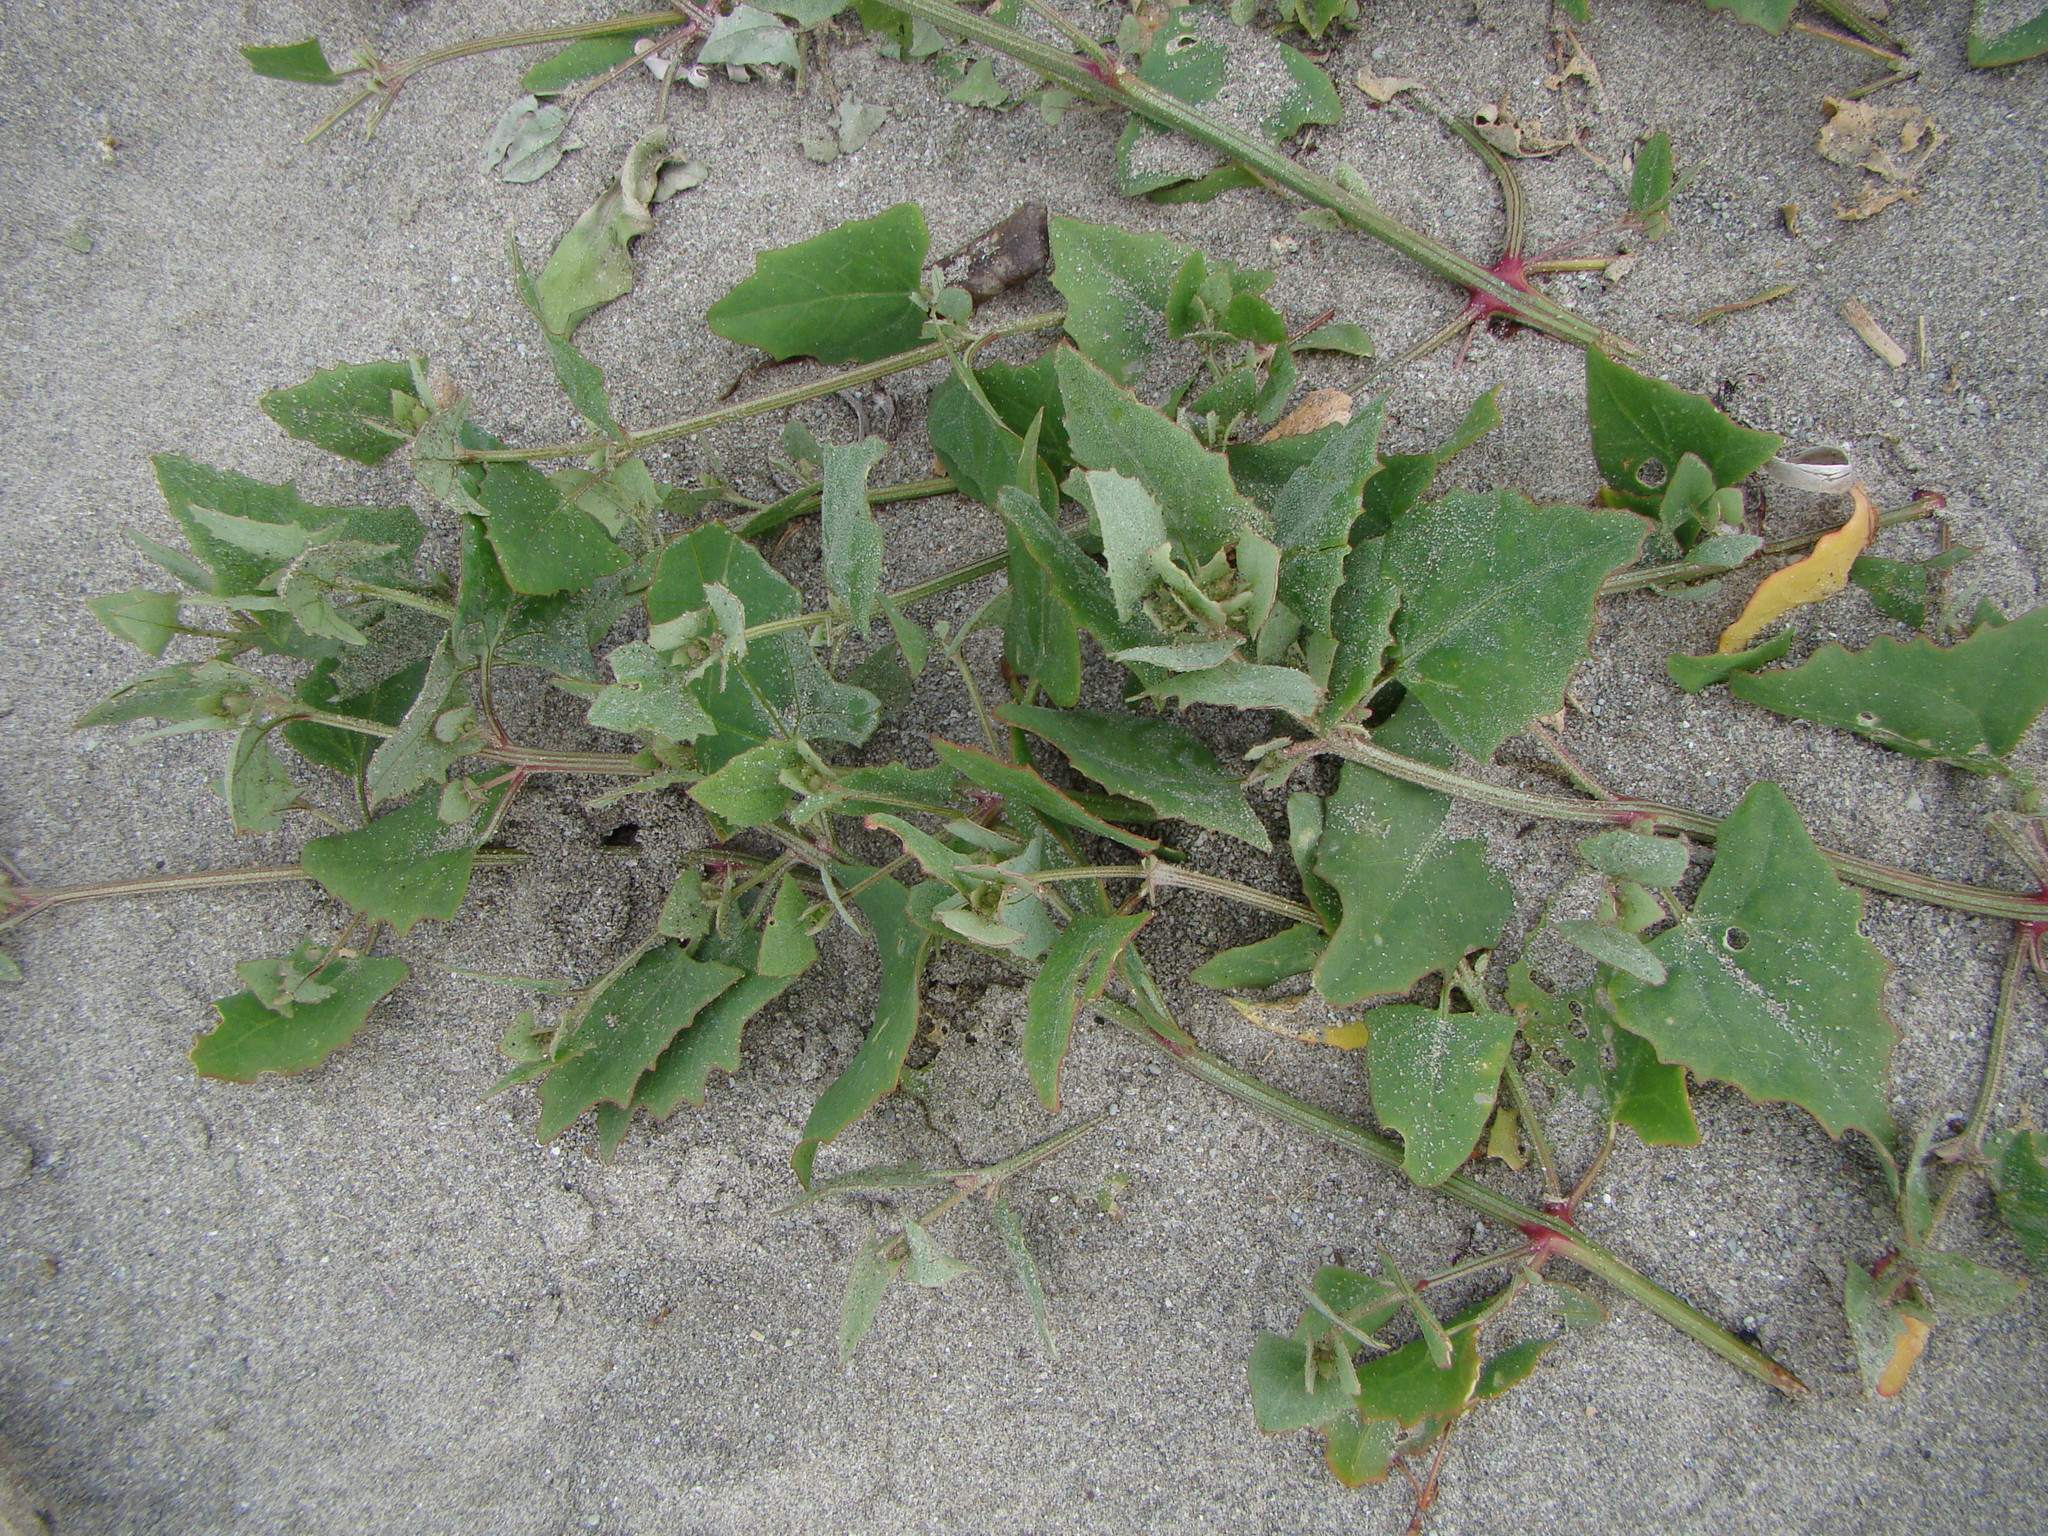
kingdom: Plantae
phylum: Tracheophyta
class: Magnoliopsida
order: Caryophyllales
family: Amaranthaceae
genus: Atriplex
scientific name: Atriplex prostrata
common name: Spear-leaved orache
